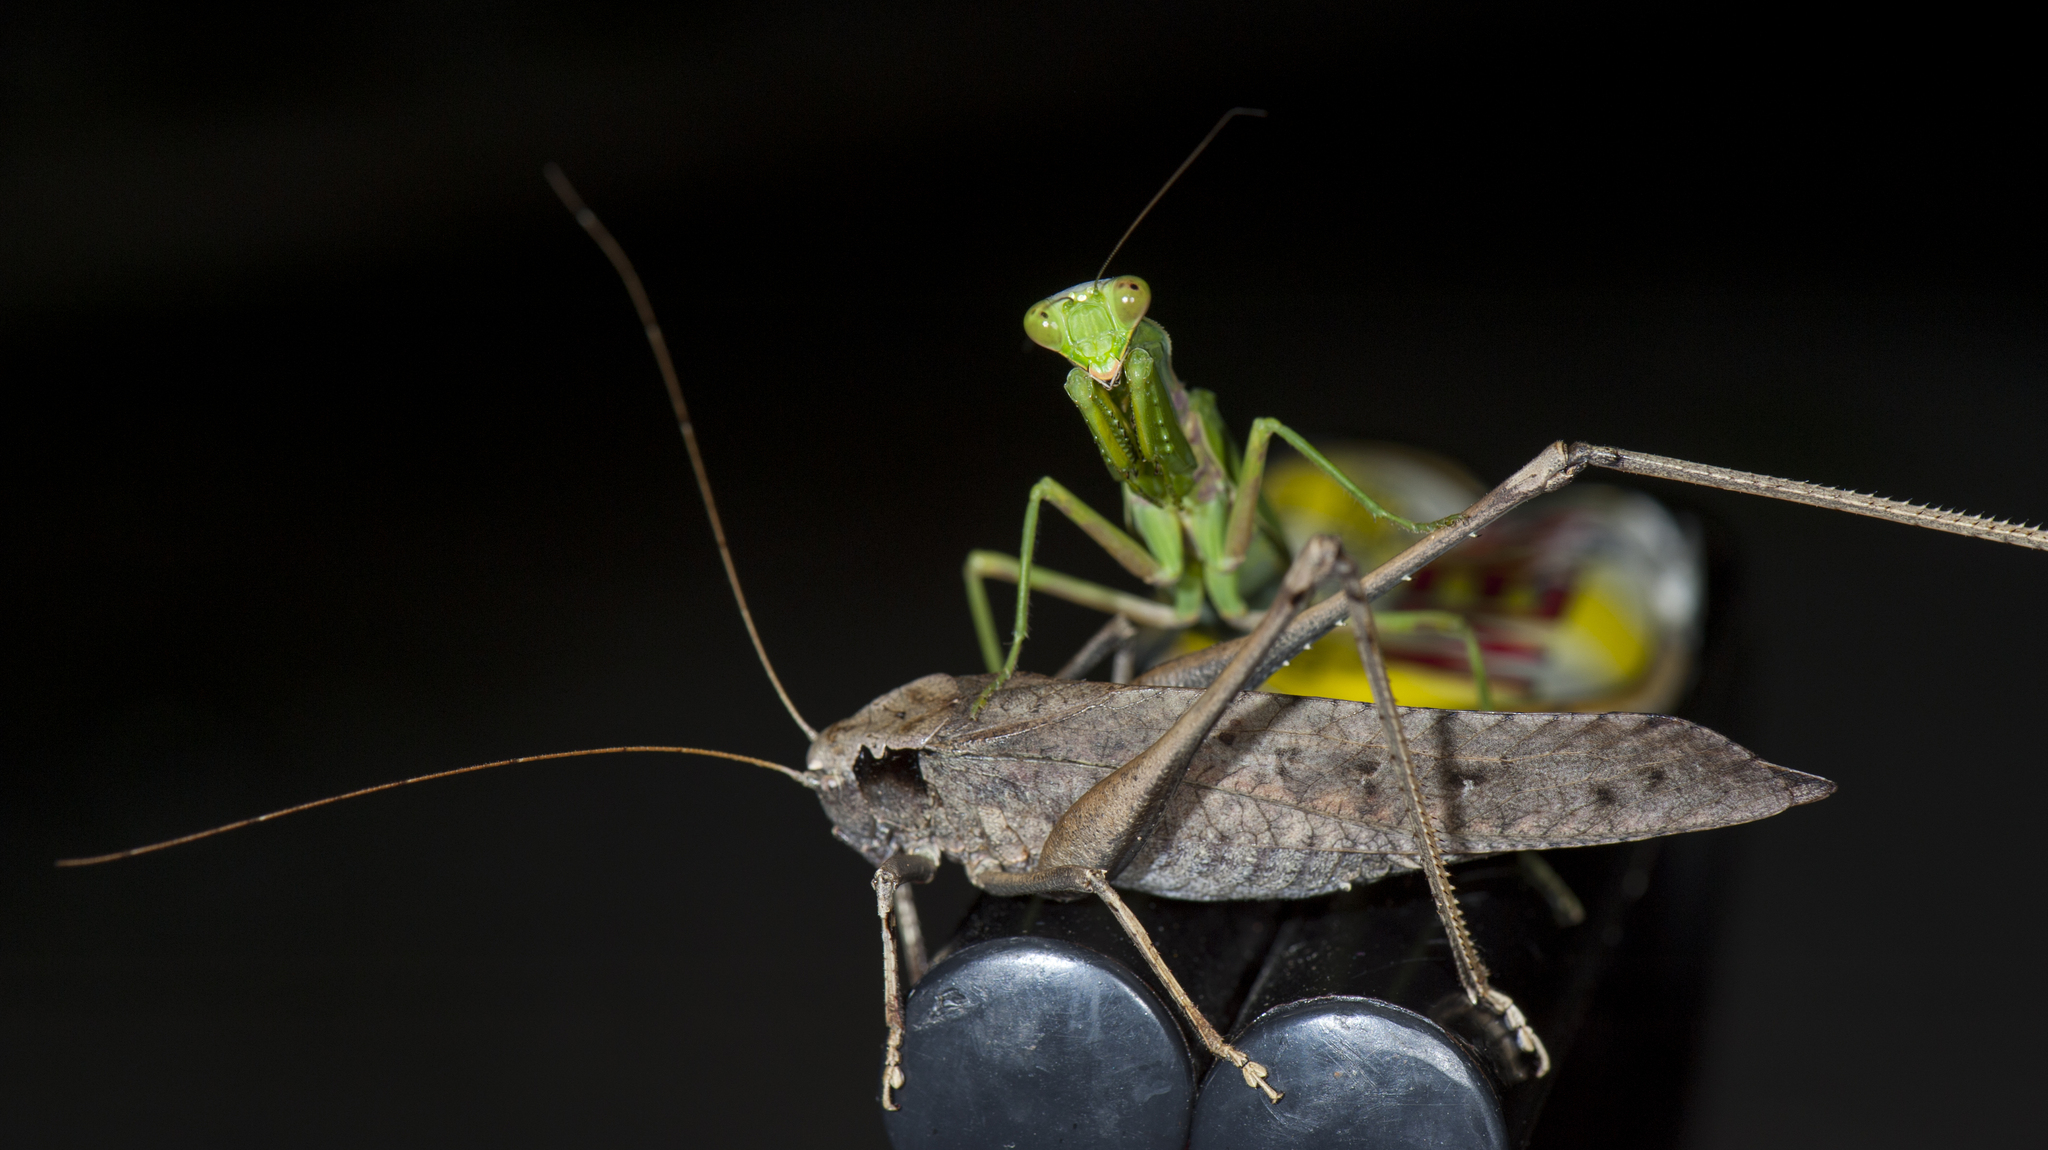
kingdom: Animalia
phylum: Arthropoda
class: Insecta
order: Mantodea
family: Mantidae
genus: Hierodula
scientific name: Hierodula patellifera
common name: Asian mantis
